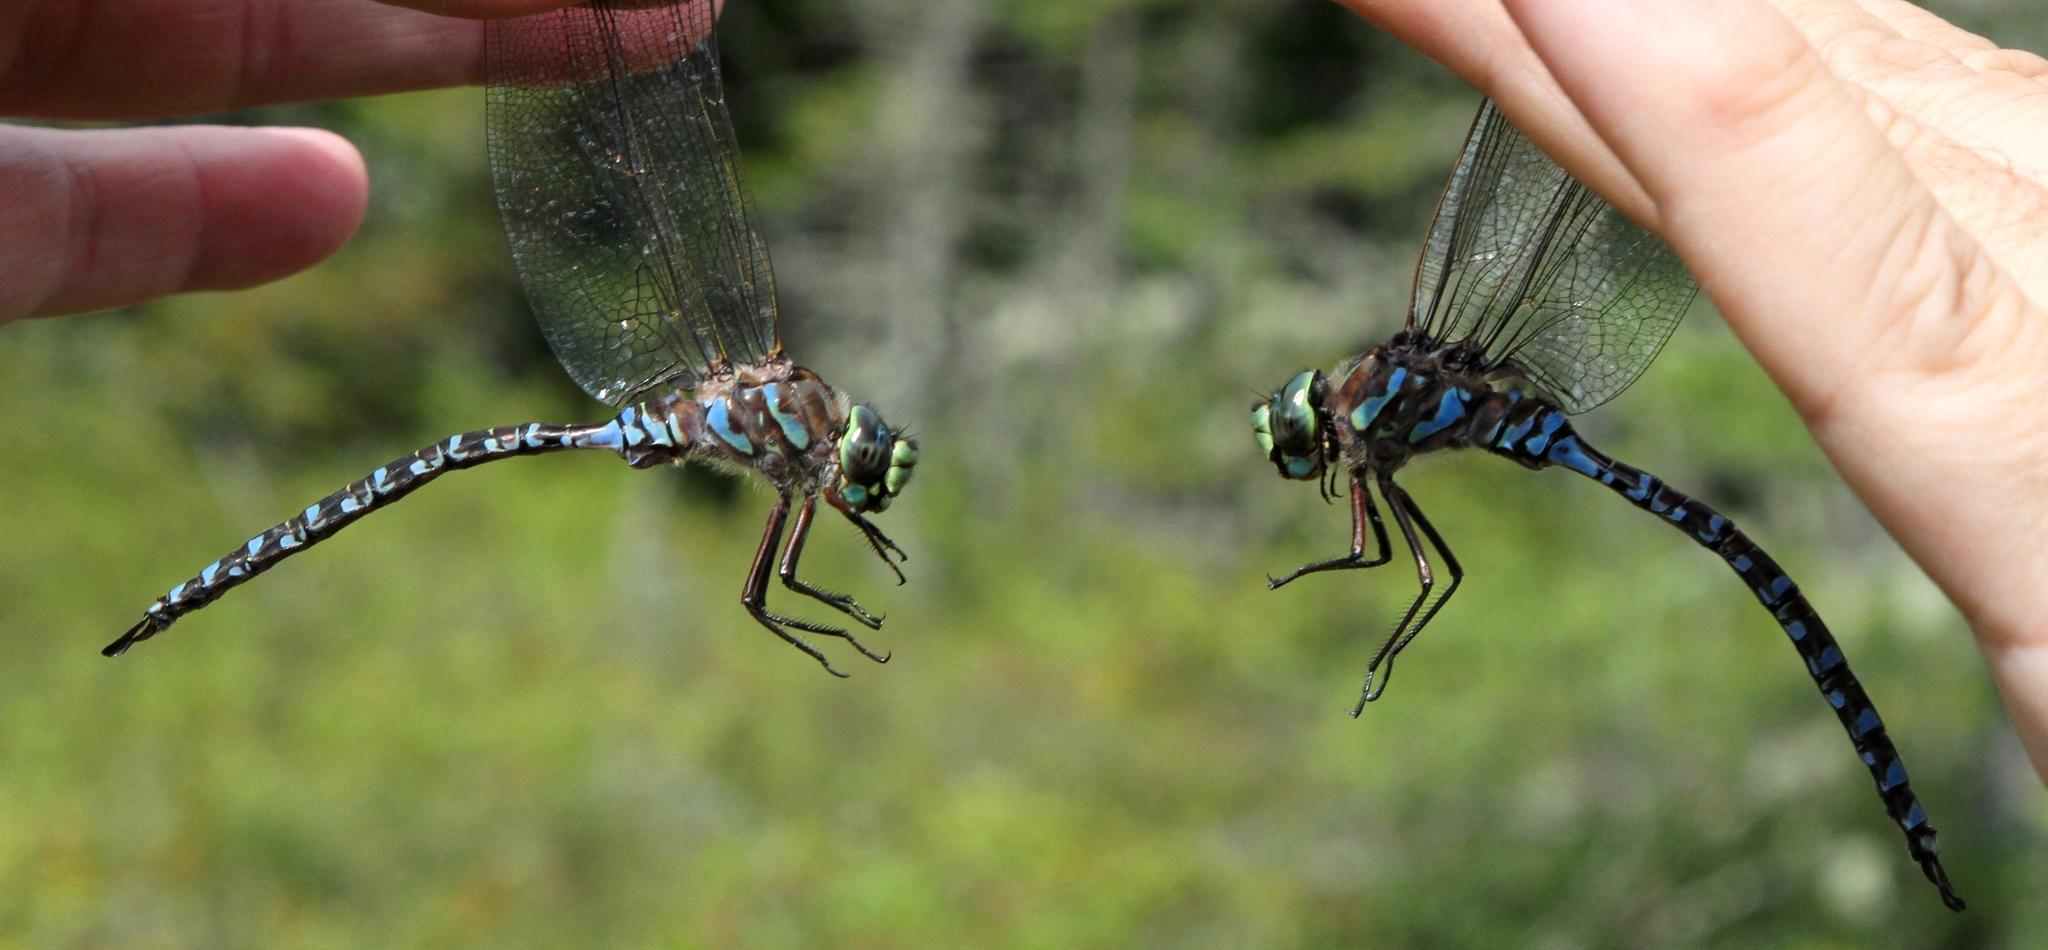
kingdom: Animalia
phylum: Arthropoda
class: Insecta
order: Odonata
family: Aeshnidae
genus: Aeshna
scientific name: Aeshna eremita
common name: Lake darner
